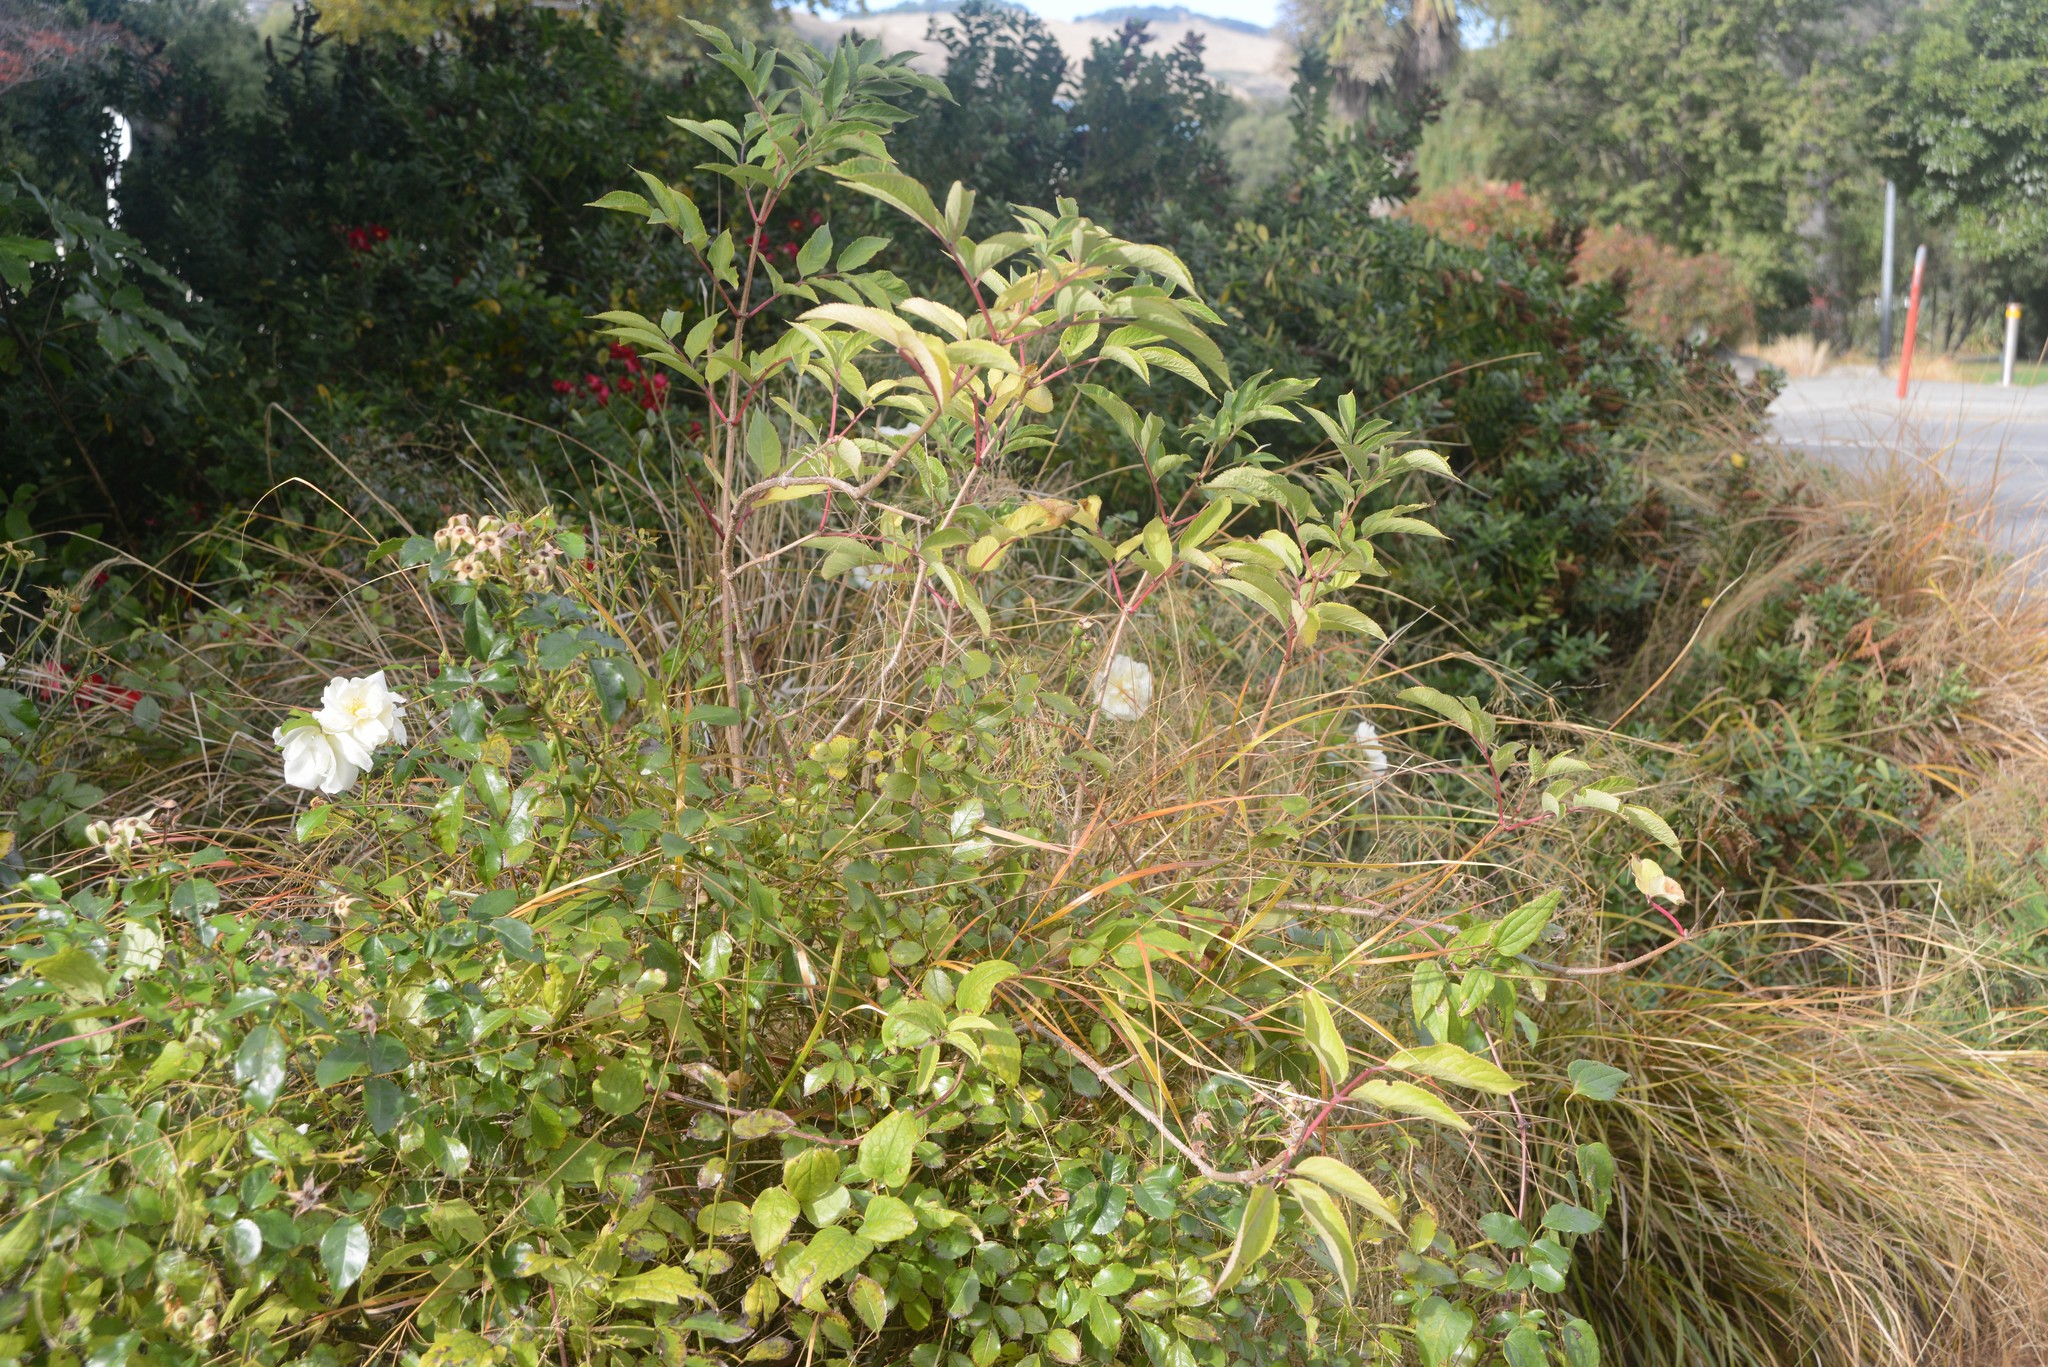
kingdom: Plantae
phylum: Tracheophyta
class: Magnoliopsida
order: Dipsacales
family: Viburnaceae
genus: Sambucus
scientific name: Sambucus nigra
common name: Elder
